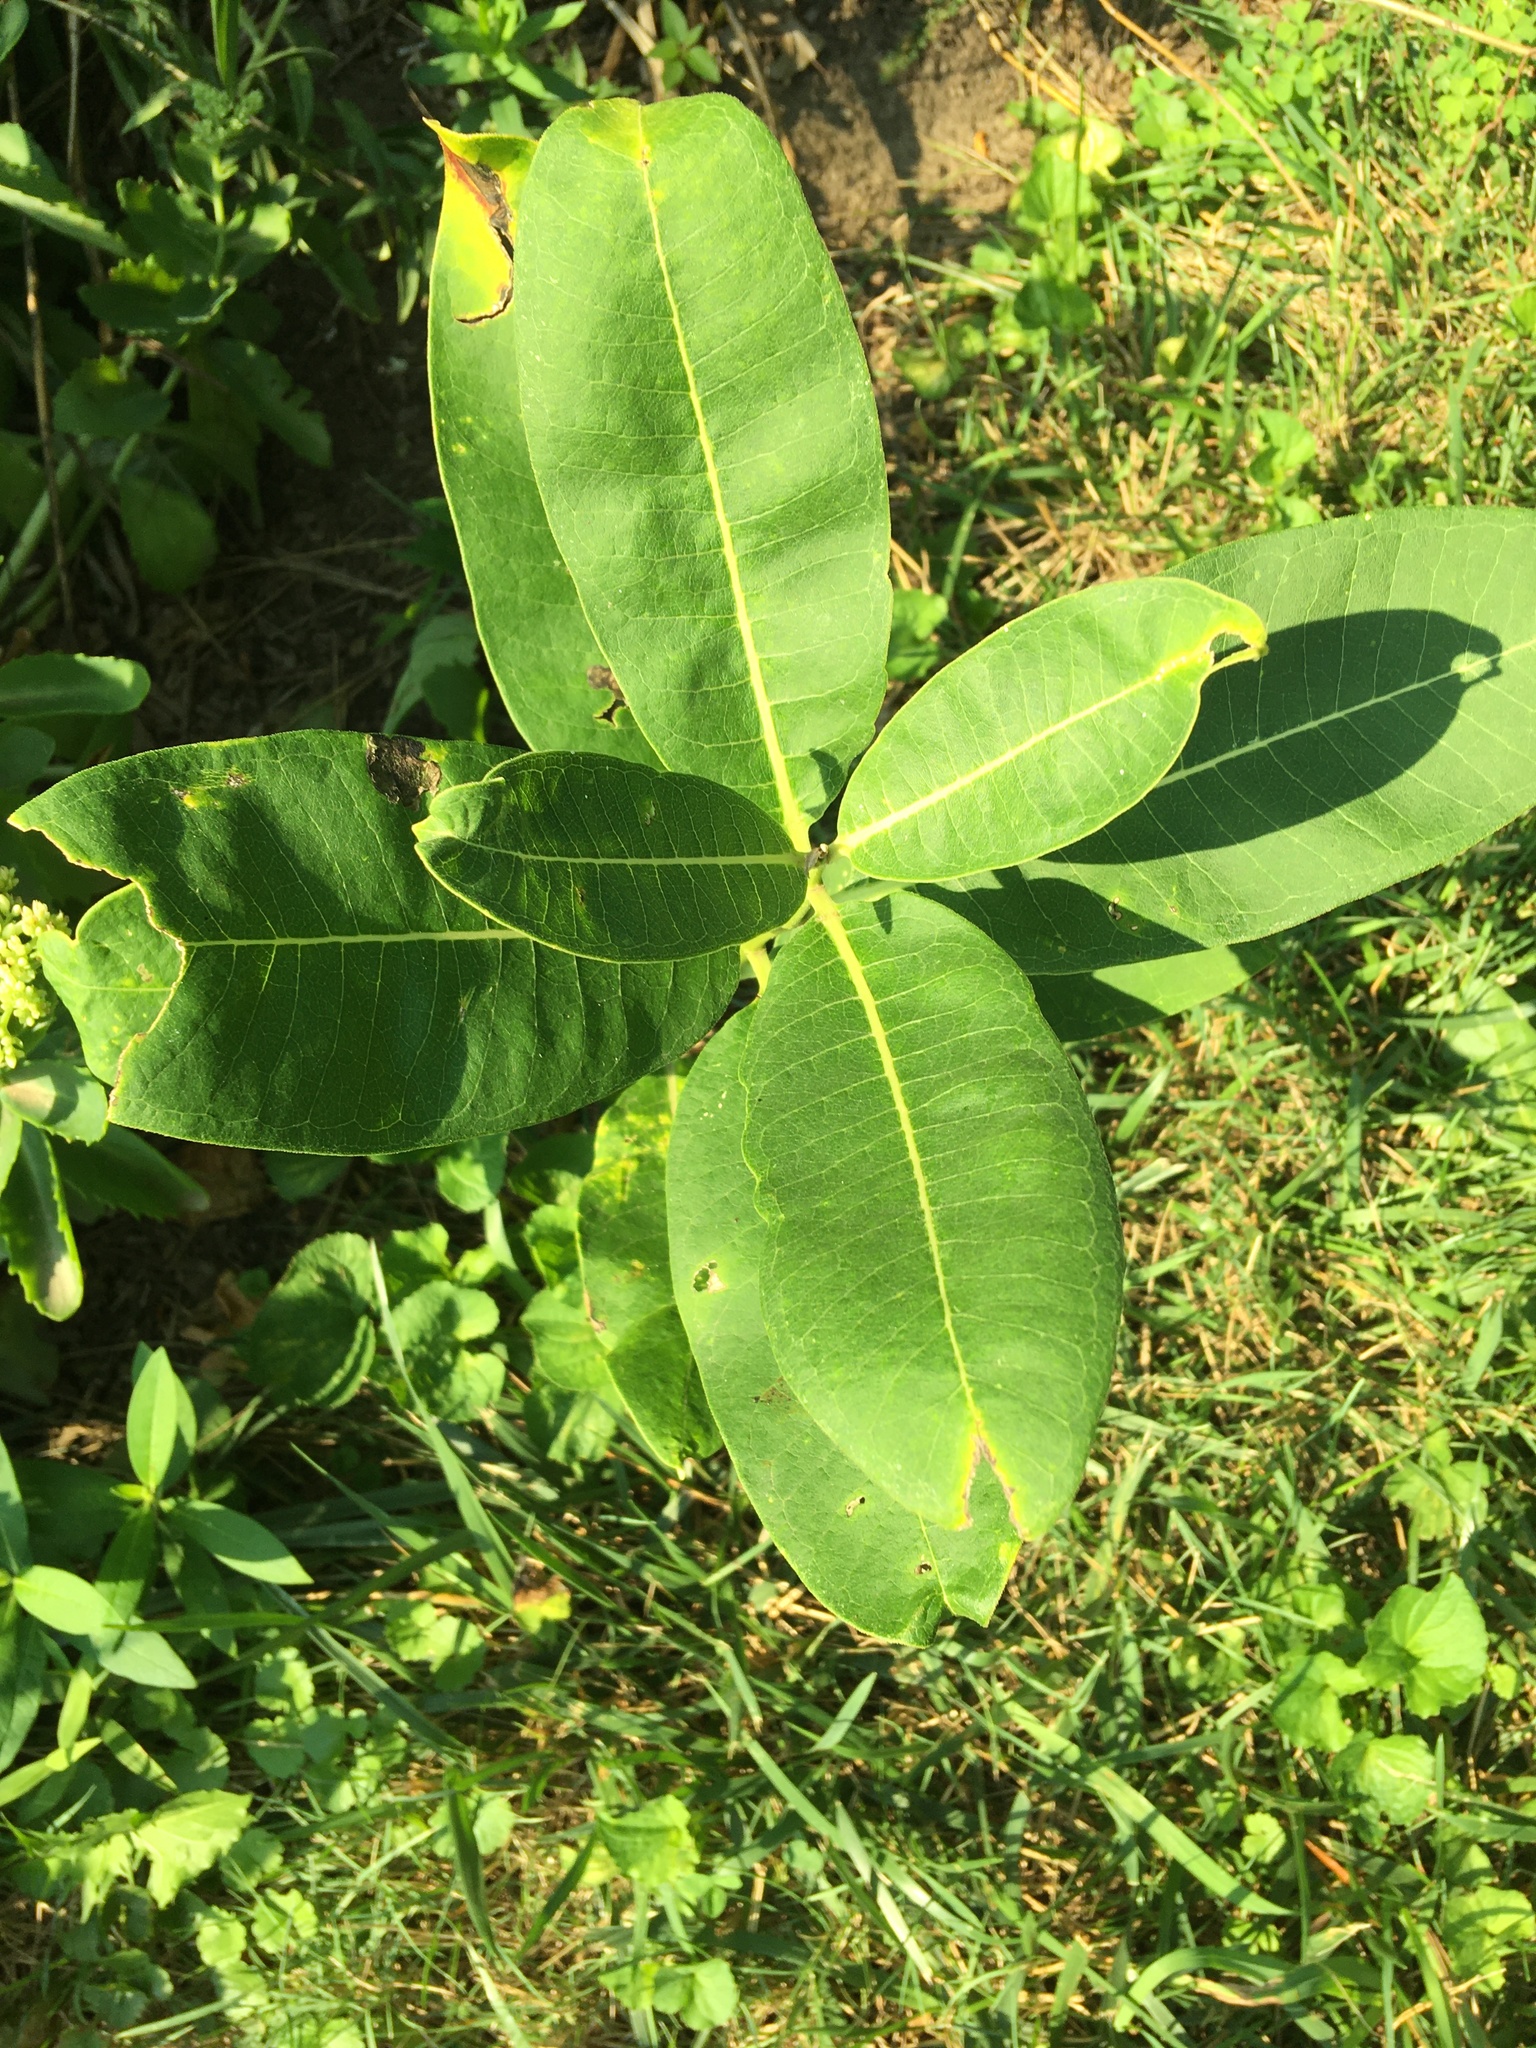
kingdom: Plantae
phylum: Tracheophyta
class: Magnoliopsida
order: Gentianales
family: Apocynaceae
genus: Asclepias
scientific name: Asclepias syriaca
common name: Common milkweed
